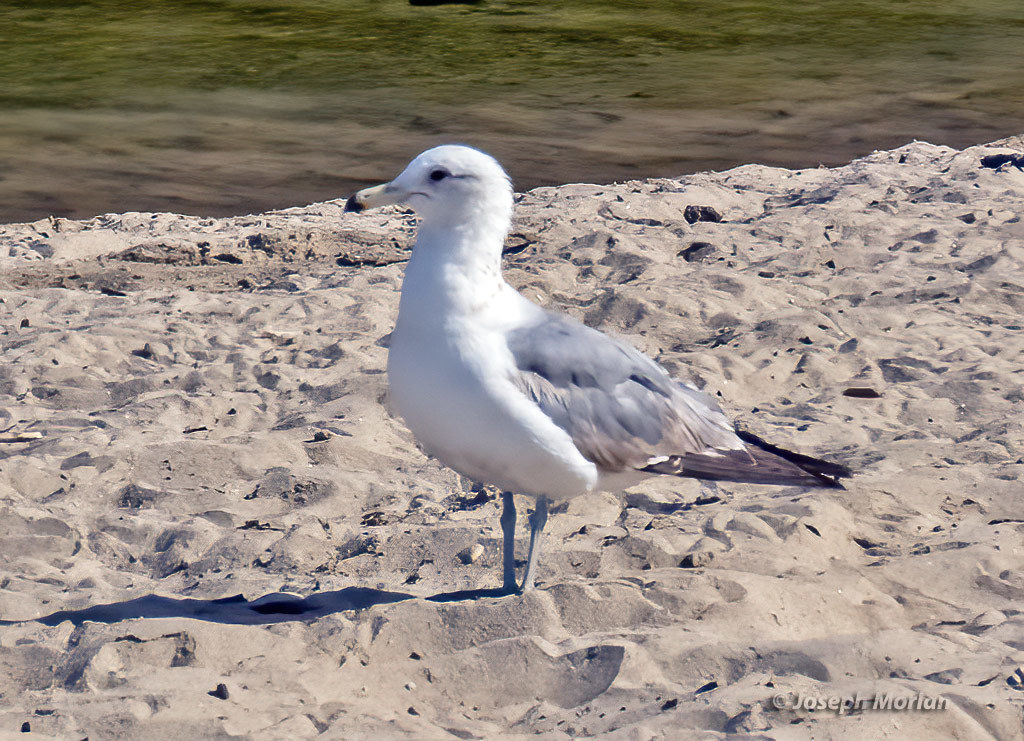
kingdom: Animalia
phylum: Chordata
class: Aves
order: Charadriiformes
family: Laridae
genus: Larus
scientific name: Larus californicus
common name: California gull
